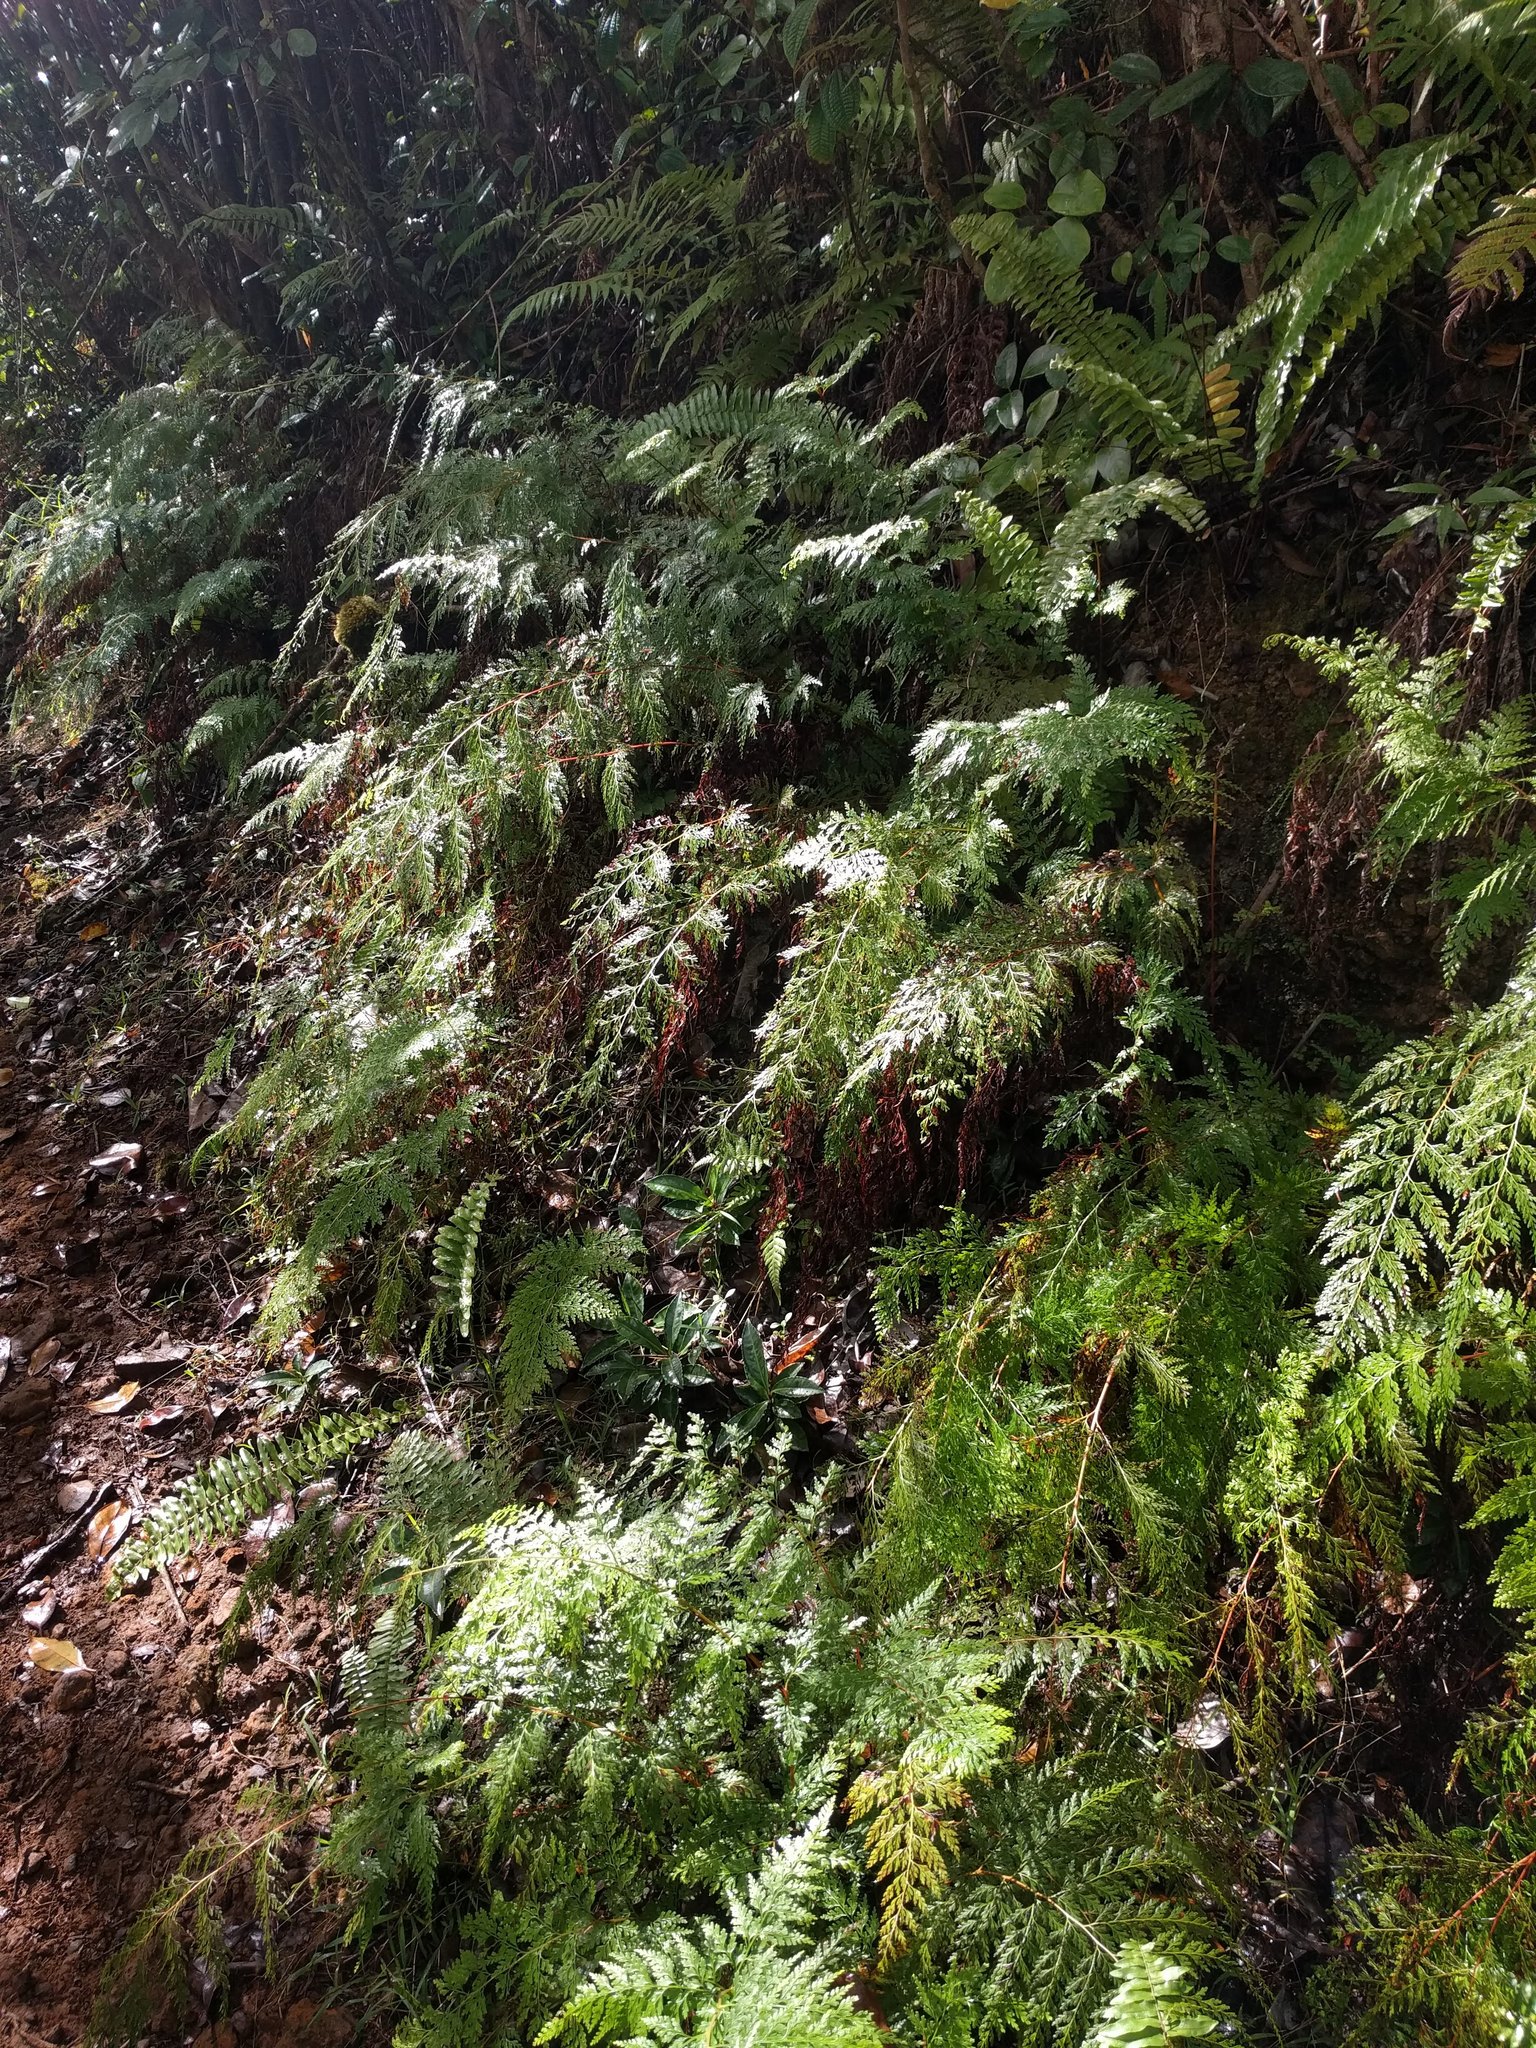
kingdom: Plantae
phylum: Tracheophyta
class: Polypodiopsida
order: Polypodiales
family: Lindsaeaceae
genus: Odontosoria
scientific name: Odontosoria chinensis
